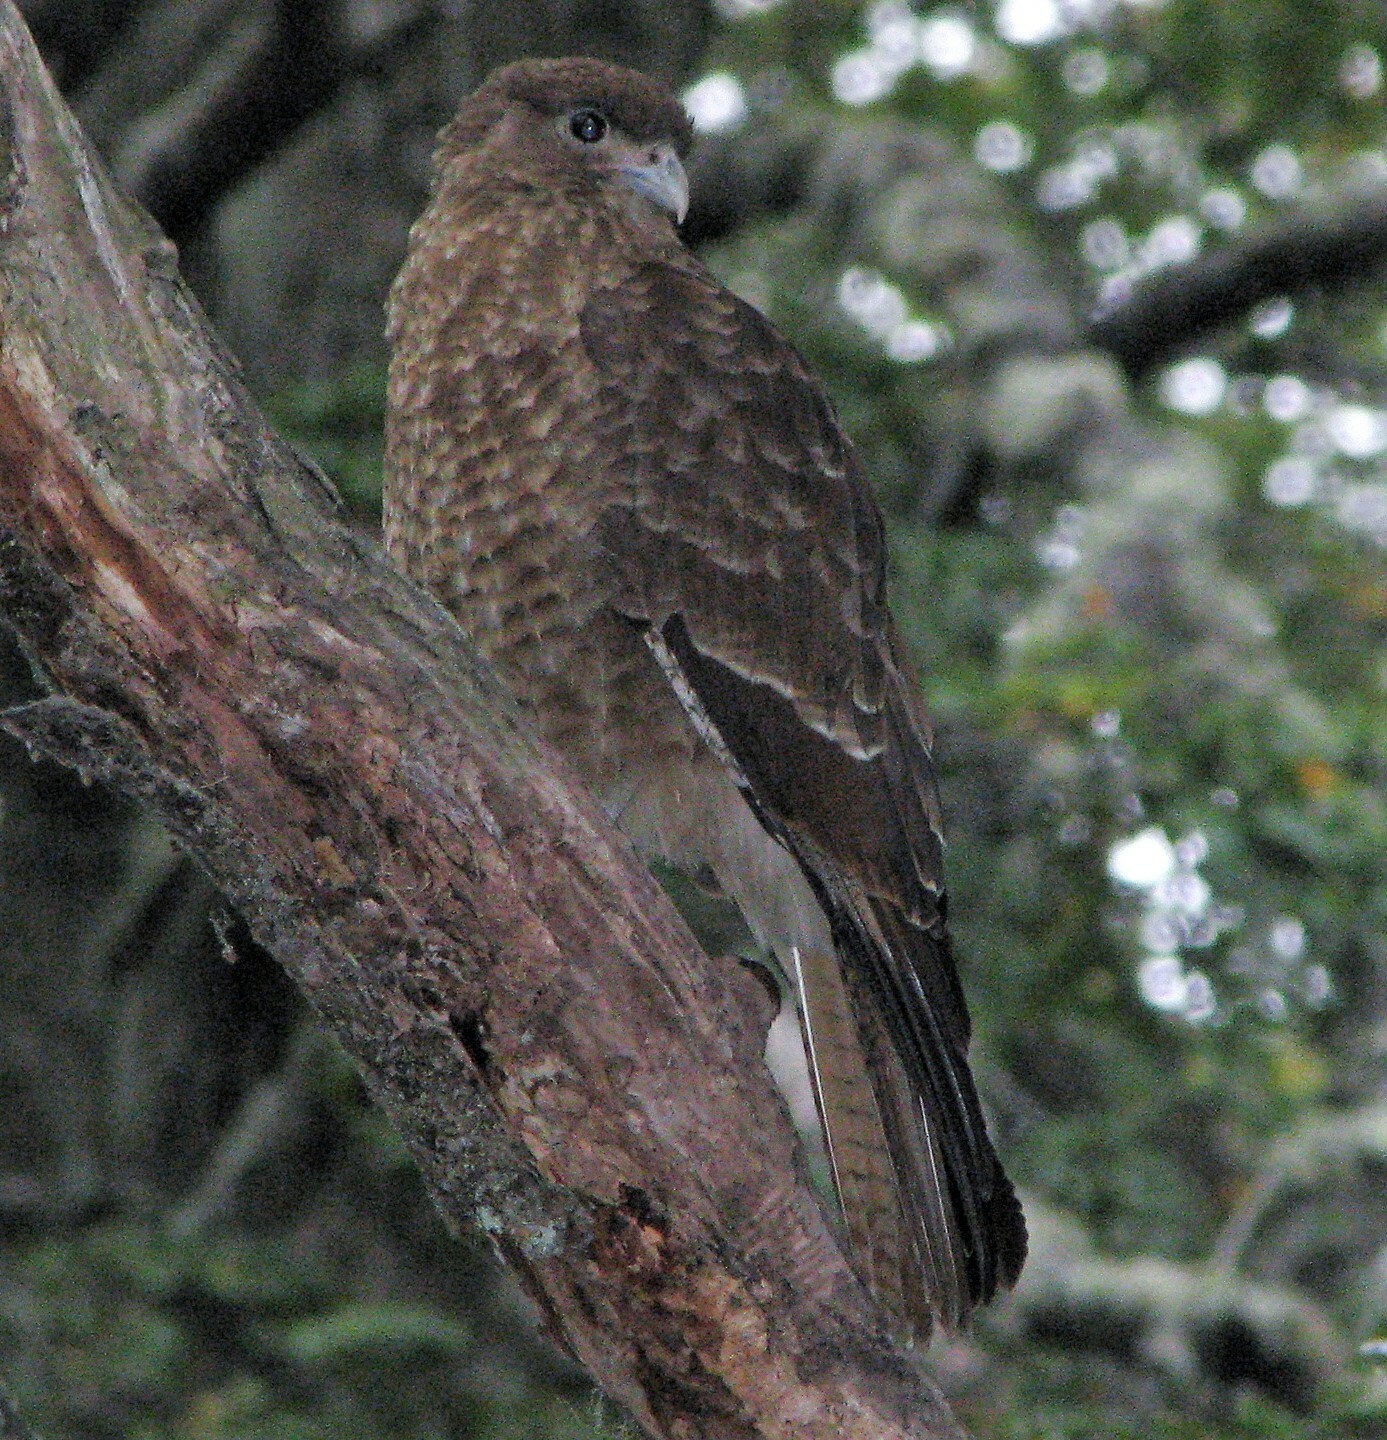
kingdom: Animalia
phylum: Chordata
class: Aves
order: Falconiformes
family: Falconidae
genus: Daptrius
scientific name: Daptrius
